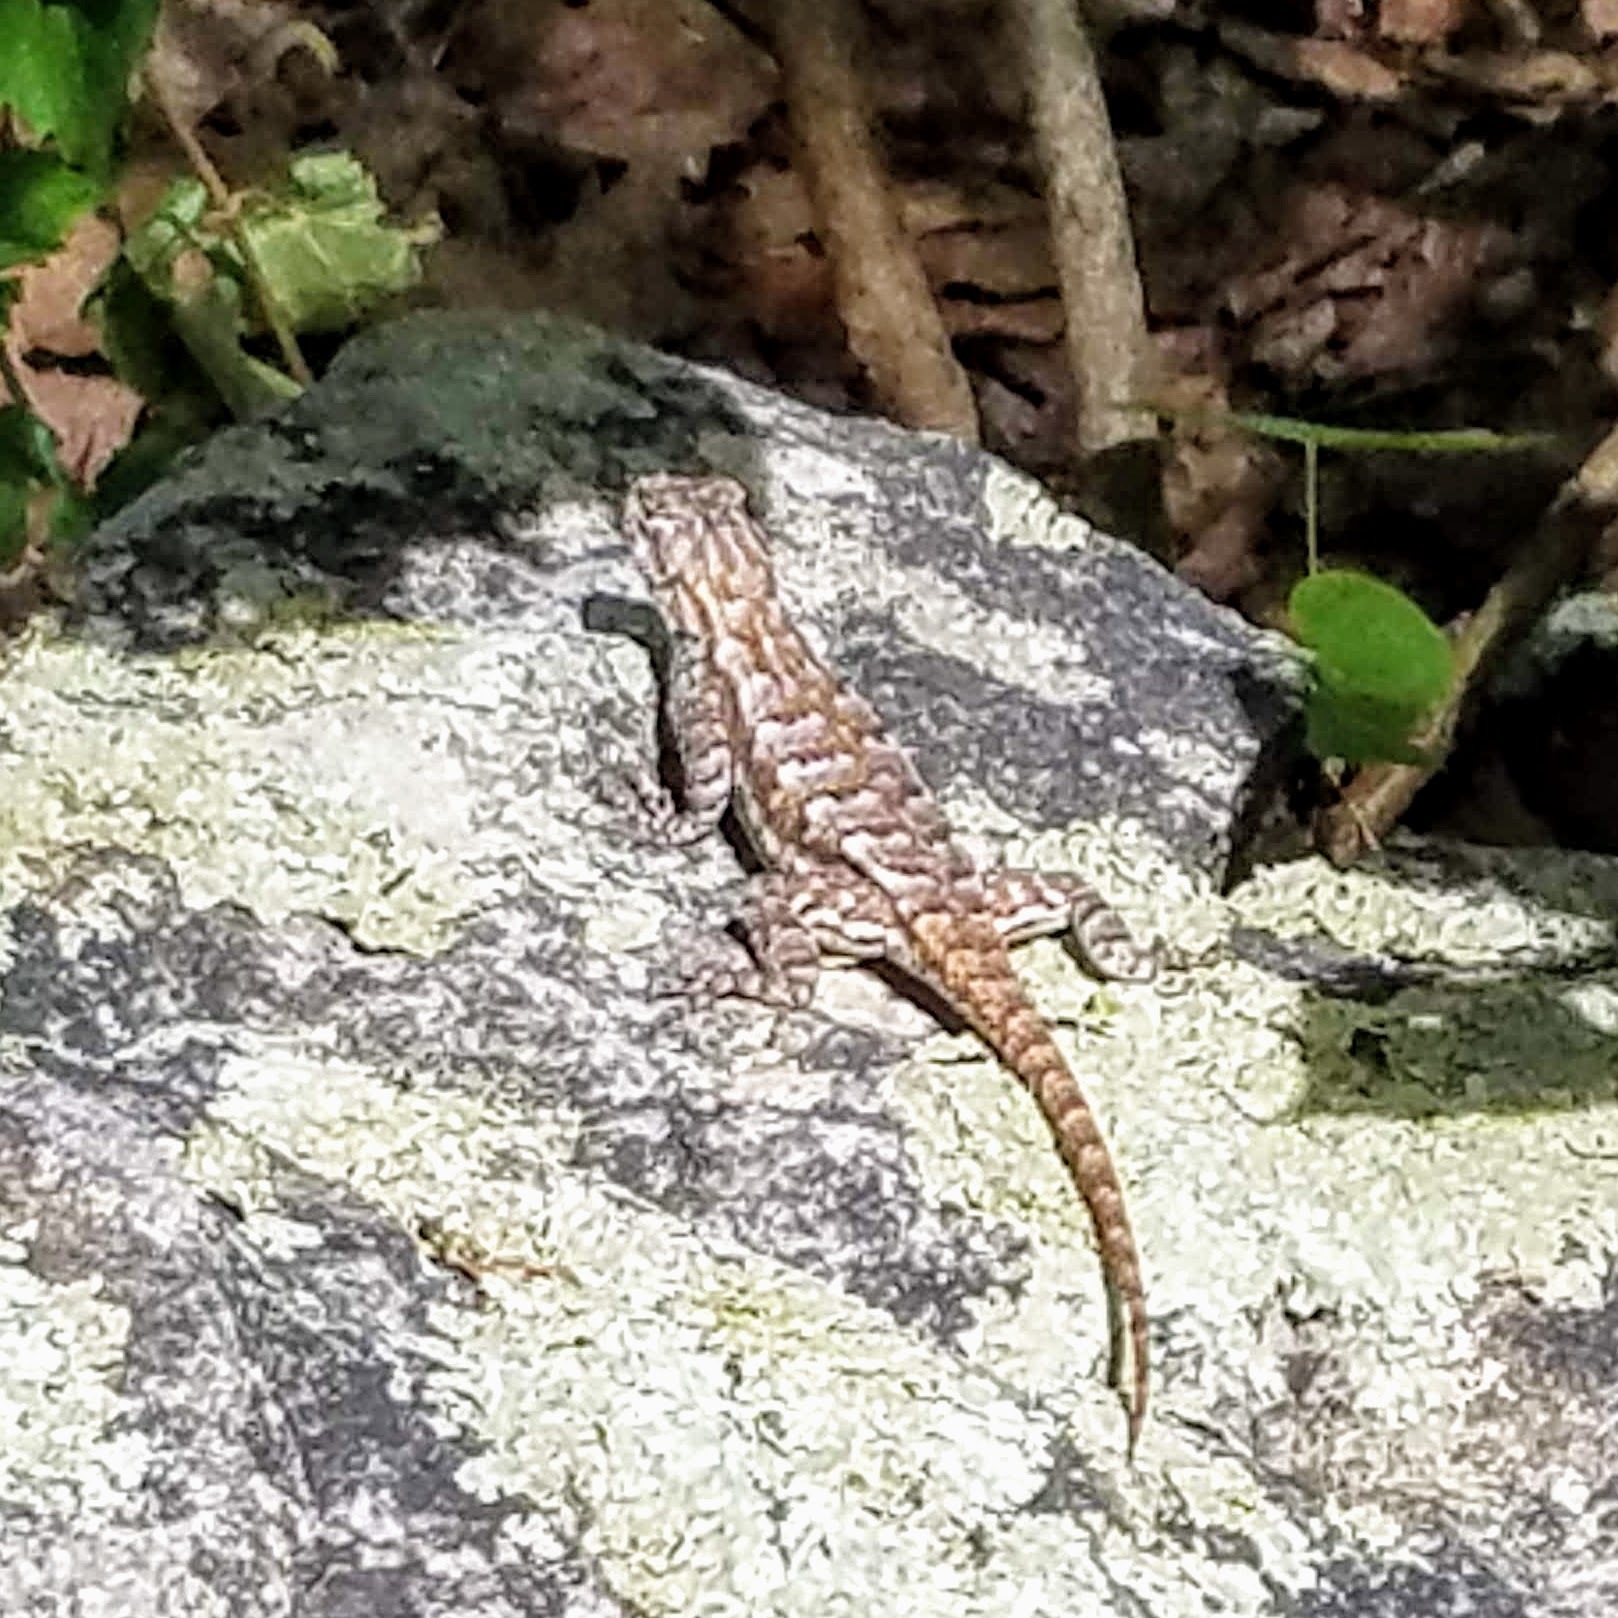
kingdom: Animalia
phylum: Chordata
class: Squamata
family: Phrynosomatidae
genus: Sceloporus
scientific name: Sceloporus undulatus
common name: Eastern fence lizard
